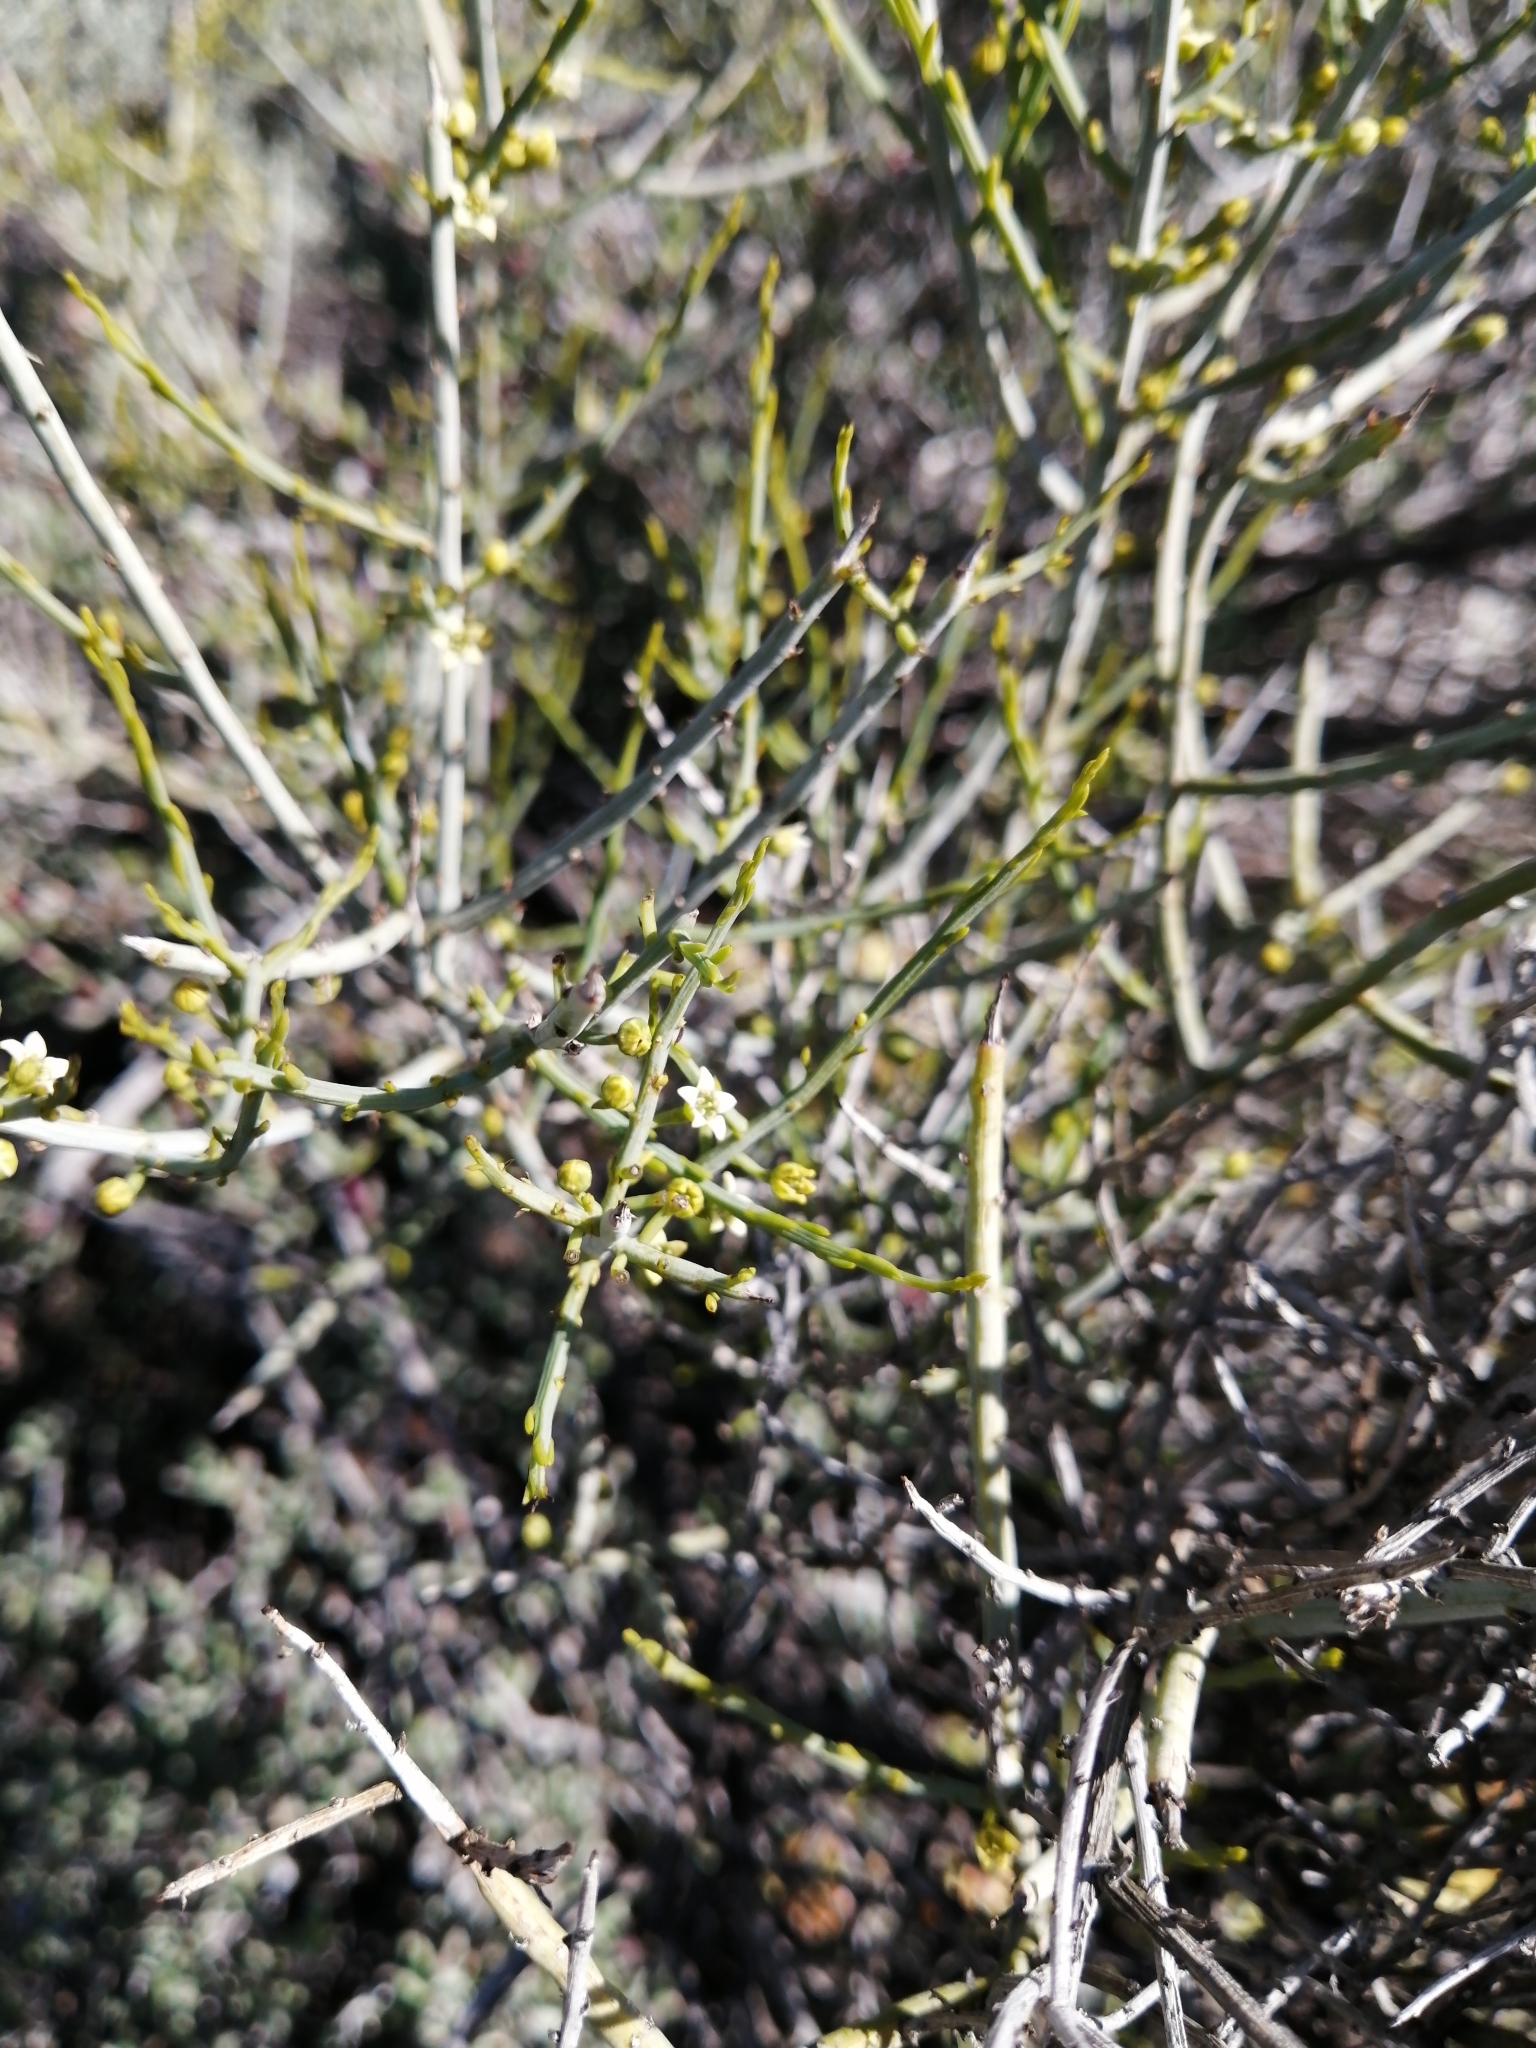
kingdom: Plantae
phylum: Tracheophyta
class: Magnoliopsida
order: Santalales
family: Thesiaceae
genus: Lacomucinaea
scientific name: Lacomucinaea lineata
